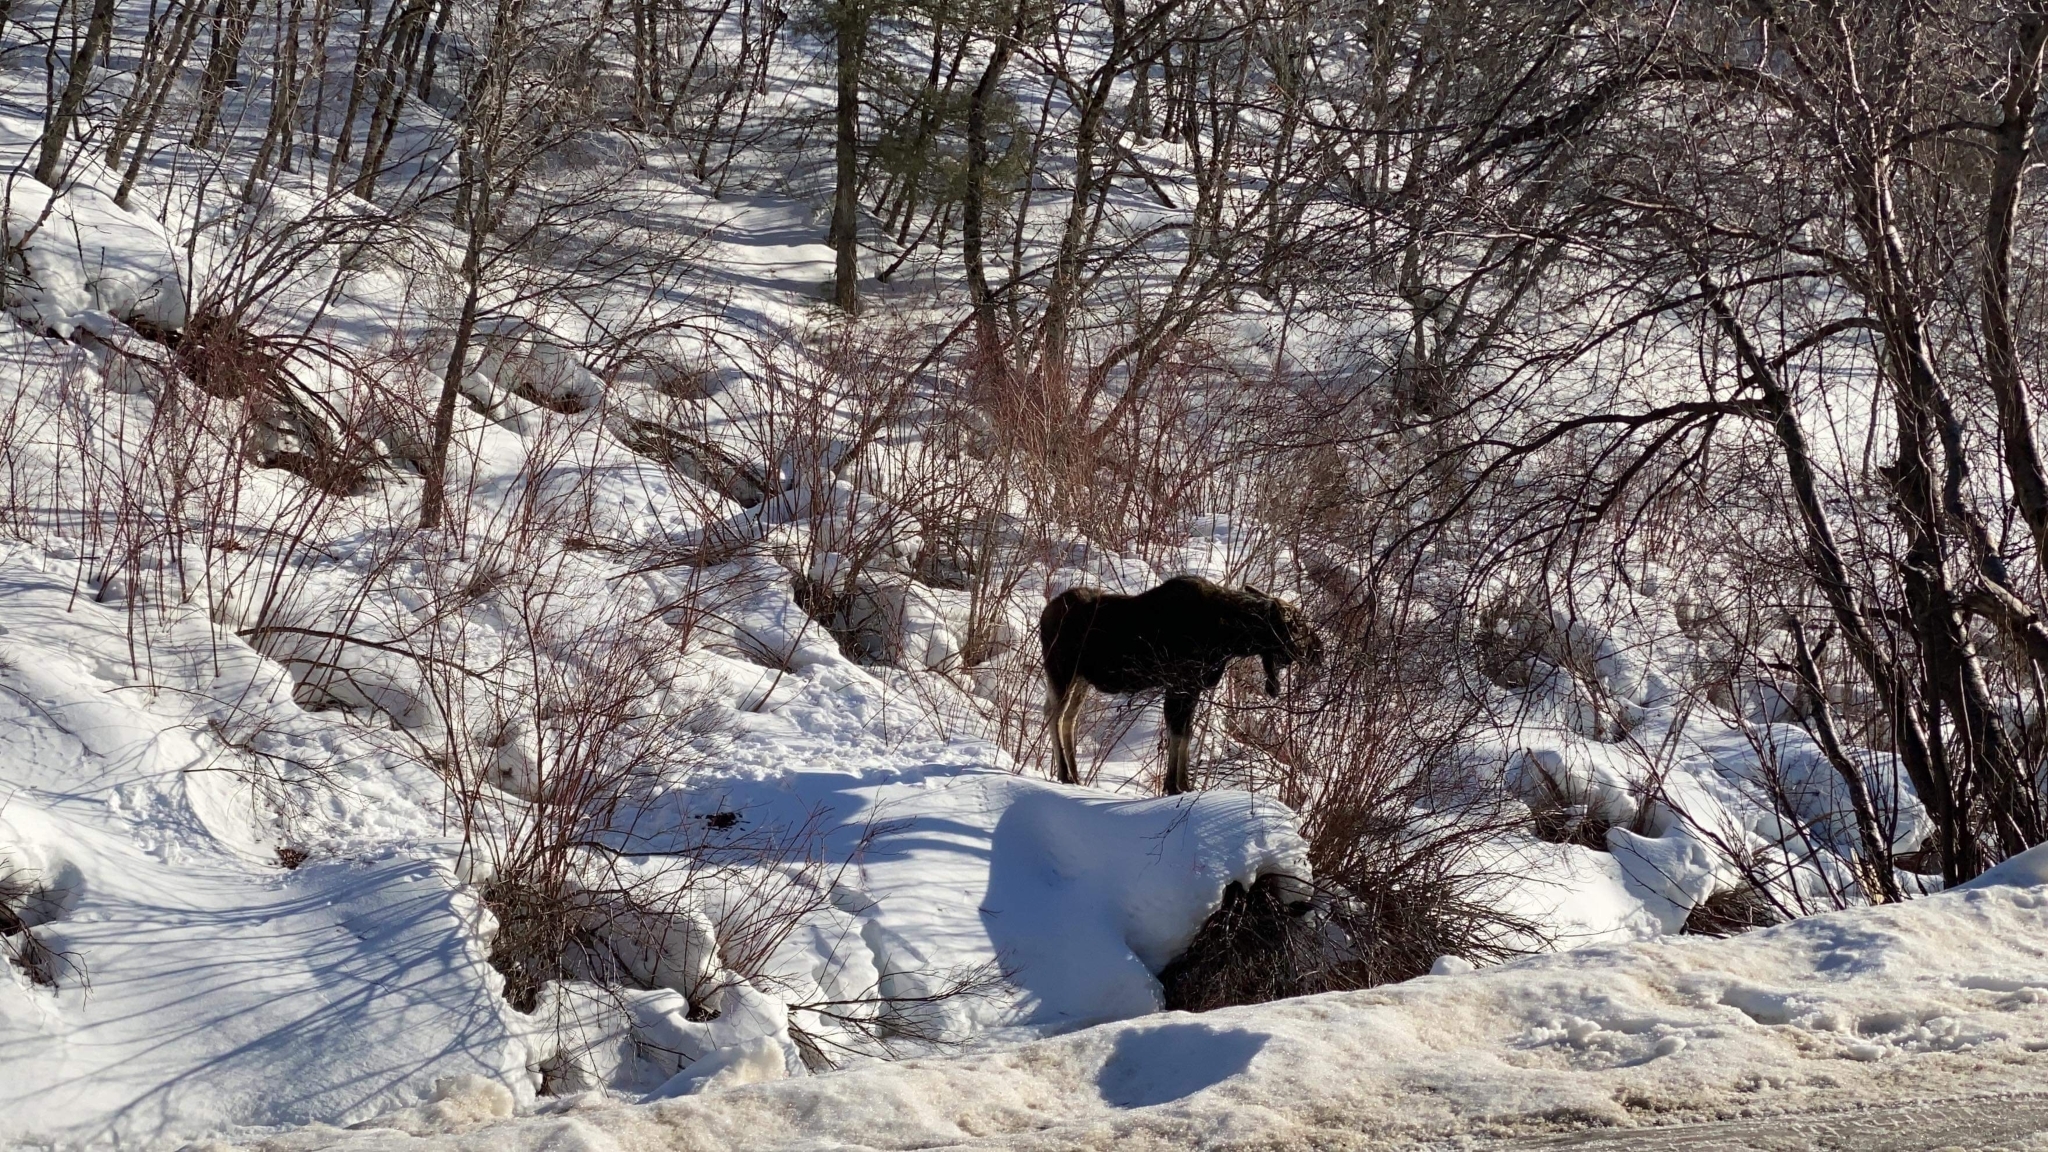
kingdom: Animalia
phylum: Chordata
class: Mammalia
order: Artiodactyla
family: Cervidae
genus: Alces
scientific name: Alces alces
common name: Moose
